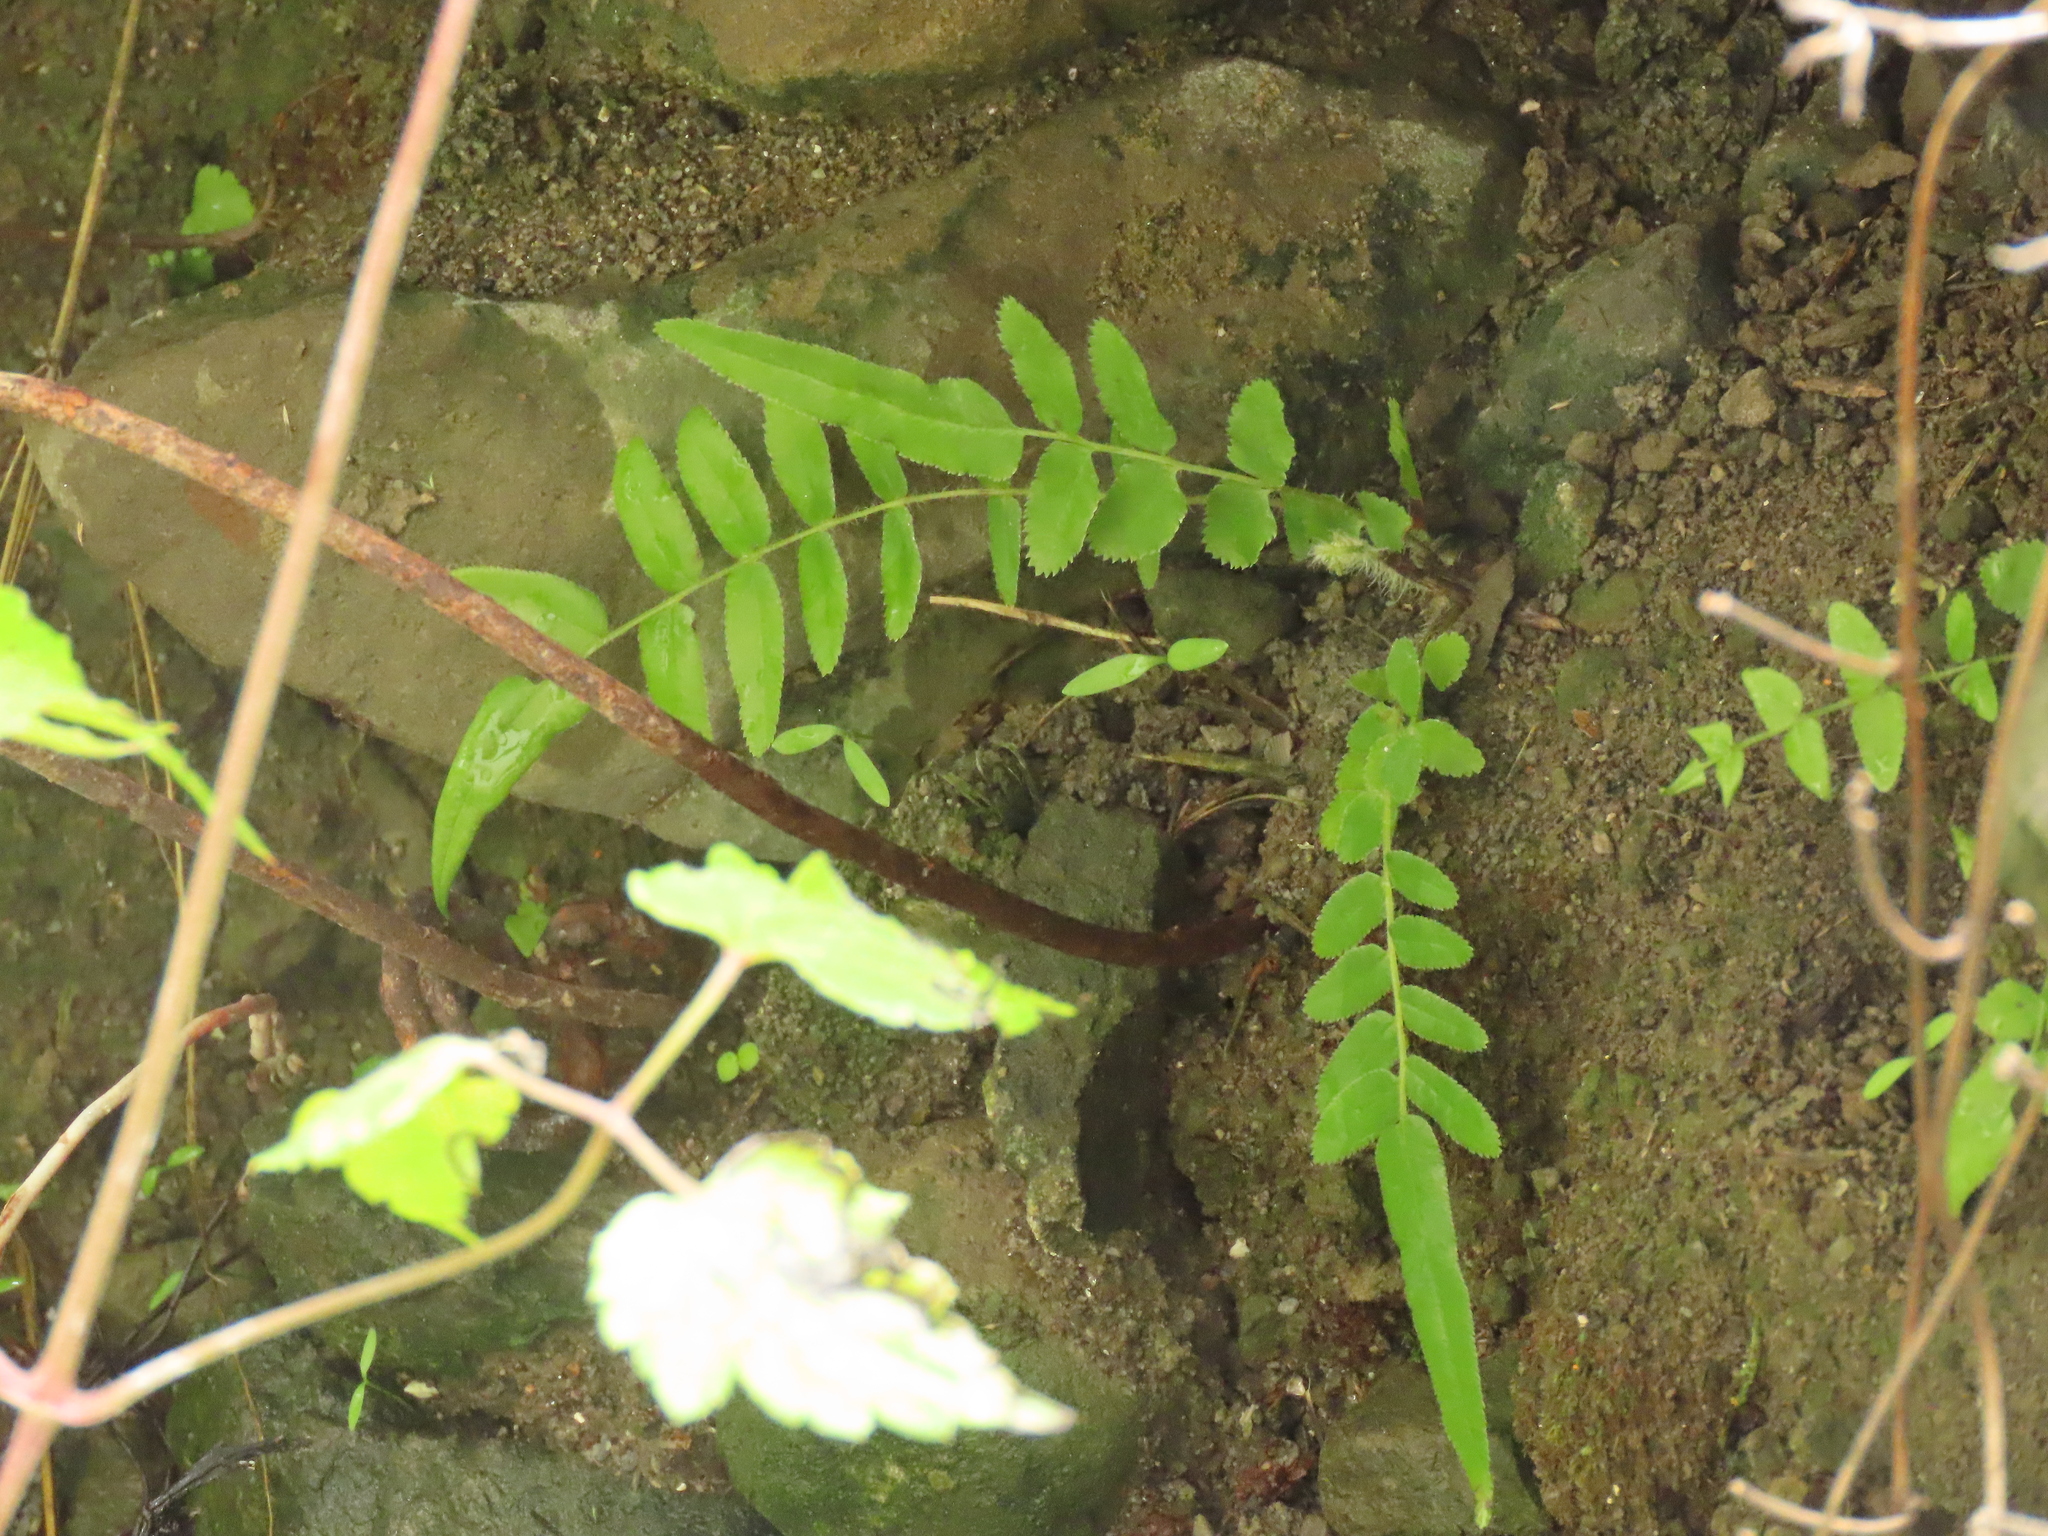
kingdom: Plantae
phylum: Tracheophyta
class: Polypodiopsida
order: Polypodiales
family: Pteridaceae
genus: Pteris
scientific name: Pteris vittata
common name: Ladder brake
